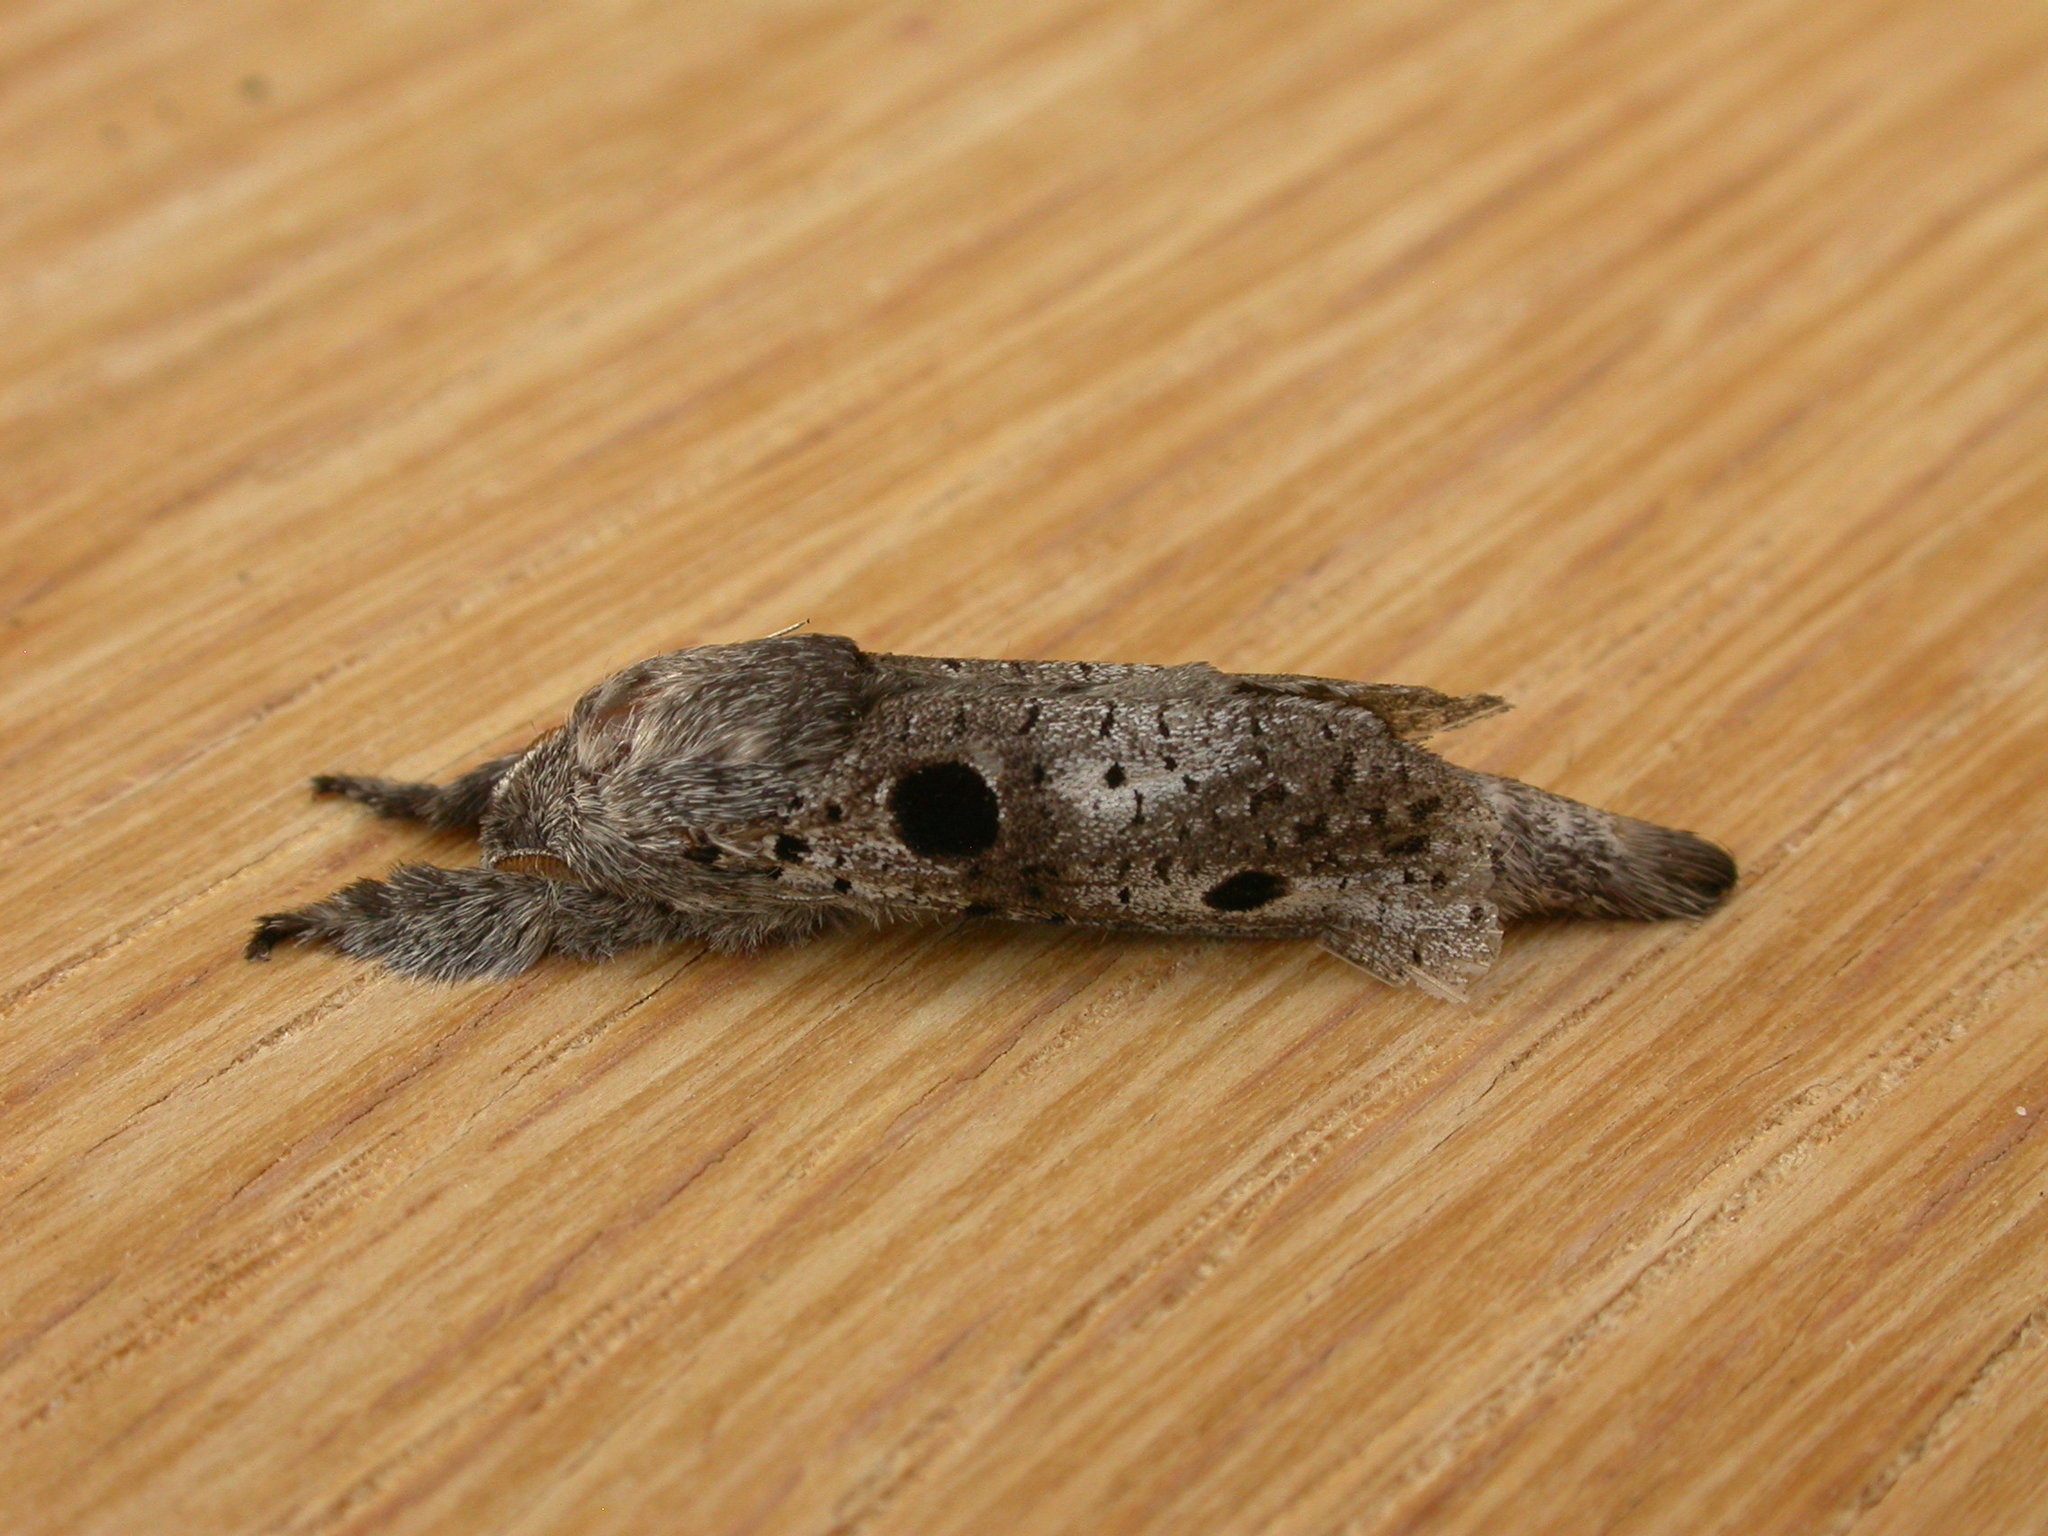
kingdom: Animalia
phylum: Arthropoda
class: Insecta
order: Lepidoptera
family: Cossidae
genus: Sympycnodes
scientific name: Sympycnodes
